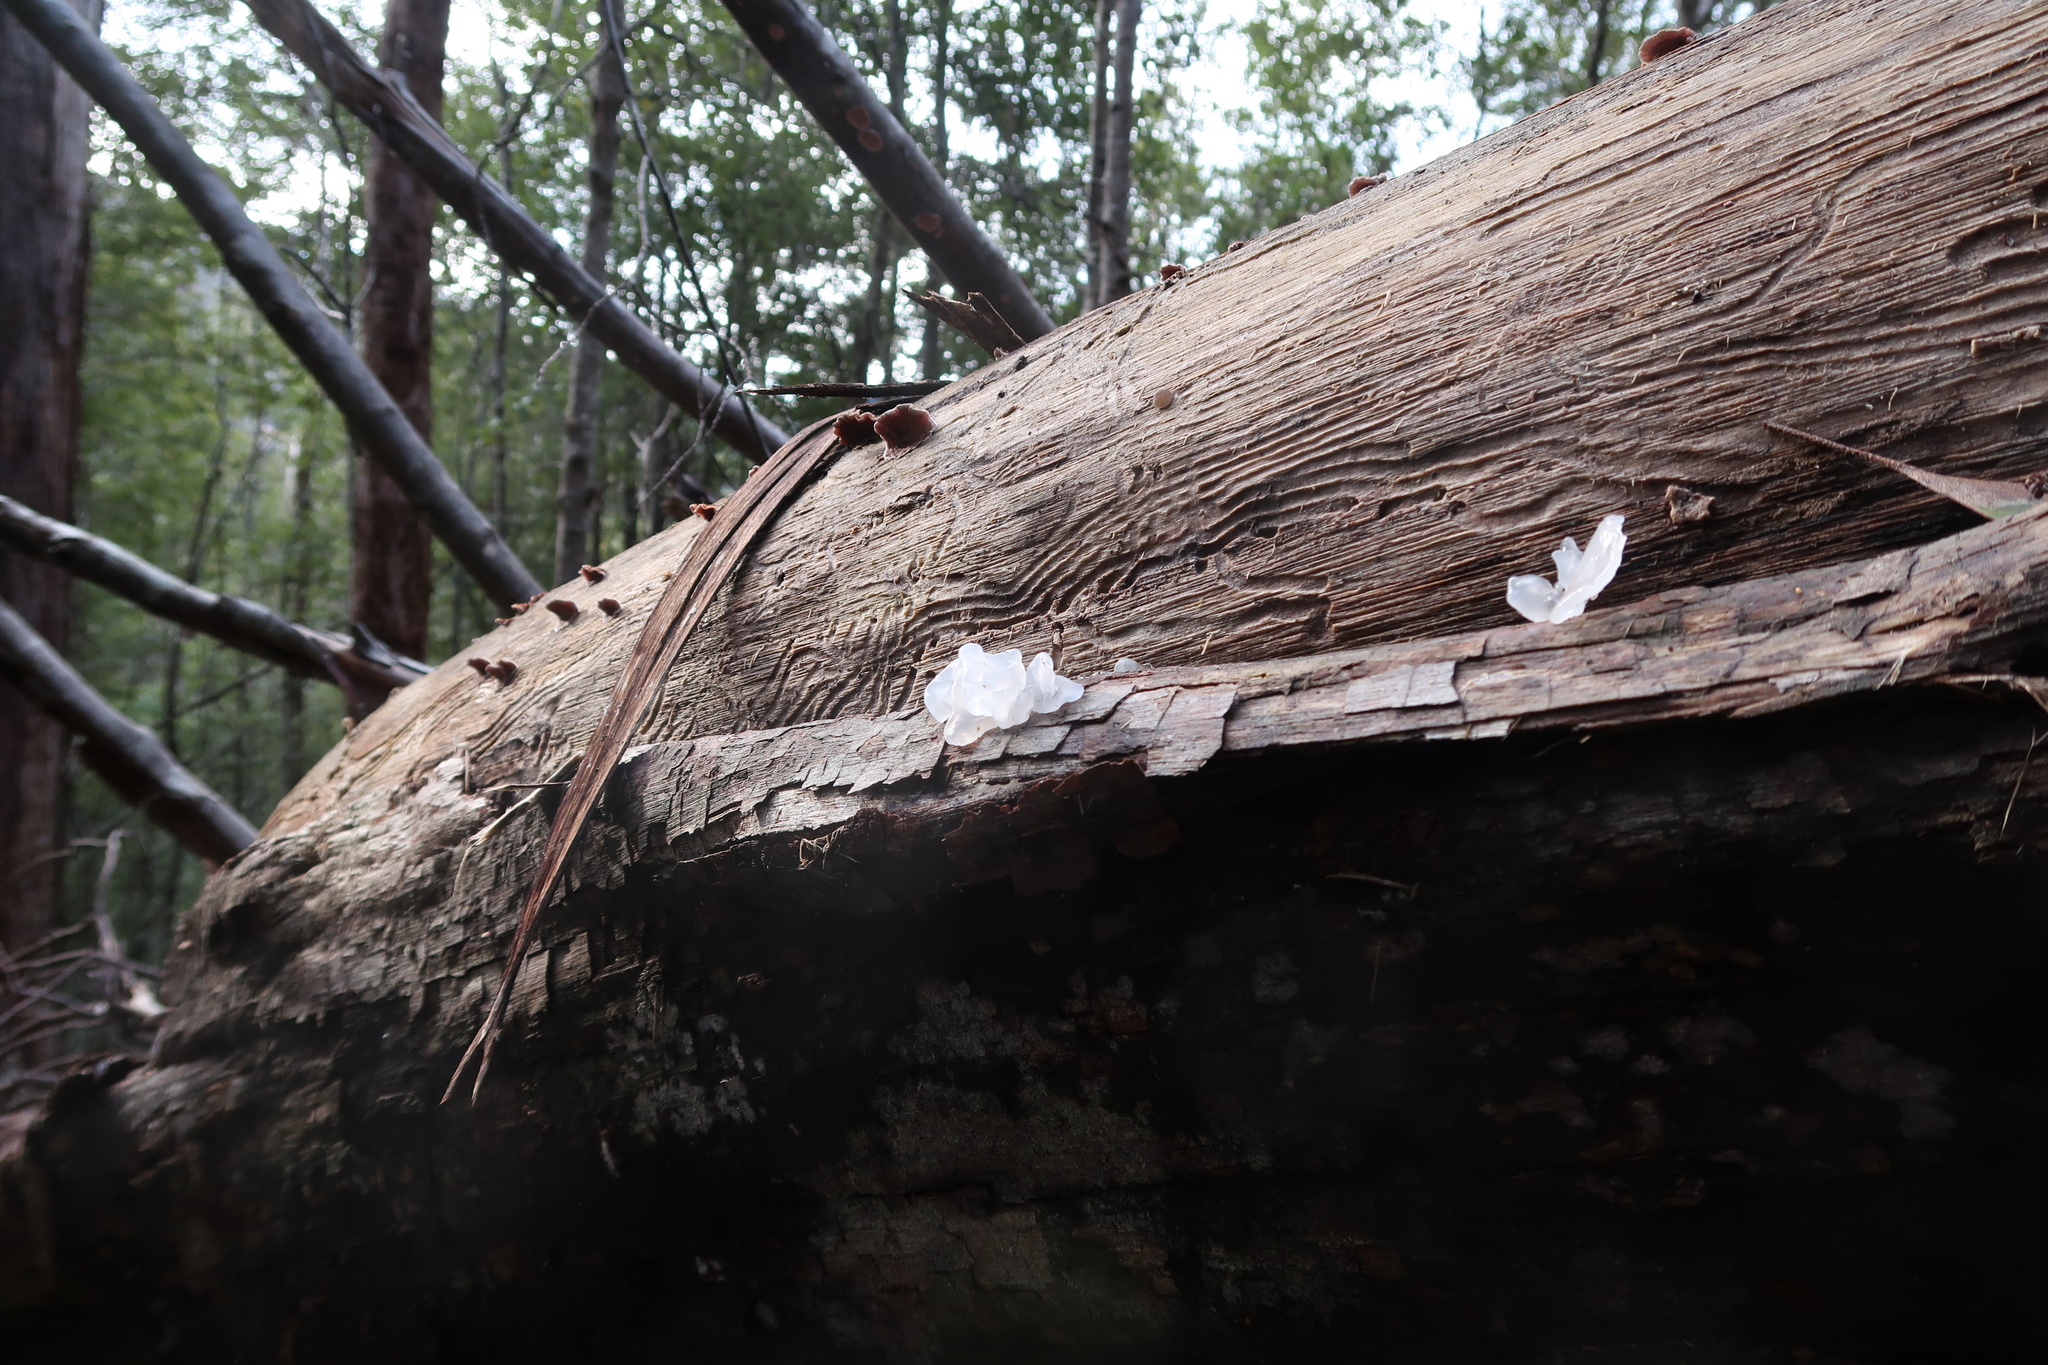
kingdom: Fungi
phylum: Basidiomycota
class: Tremellomycetes
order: Tremellales
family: Tremellaceae
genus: Tremella
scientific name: Tremella fuciformis
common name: Snow fungus
